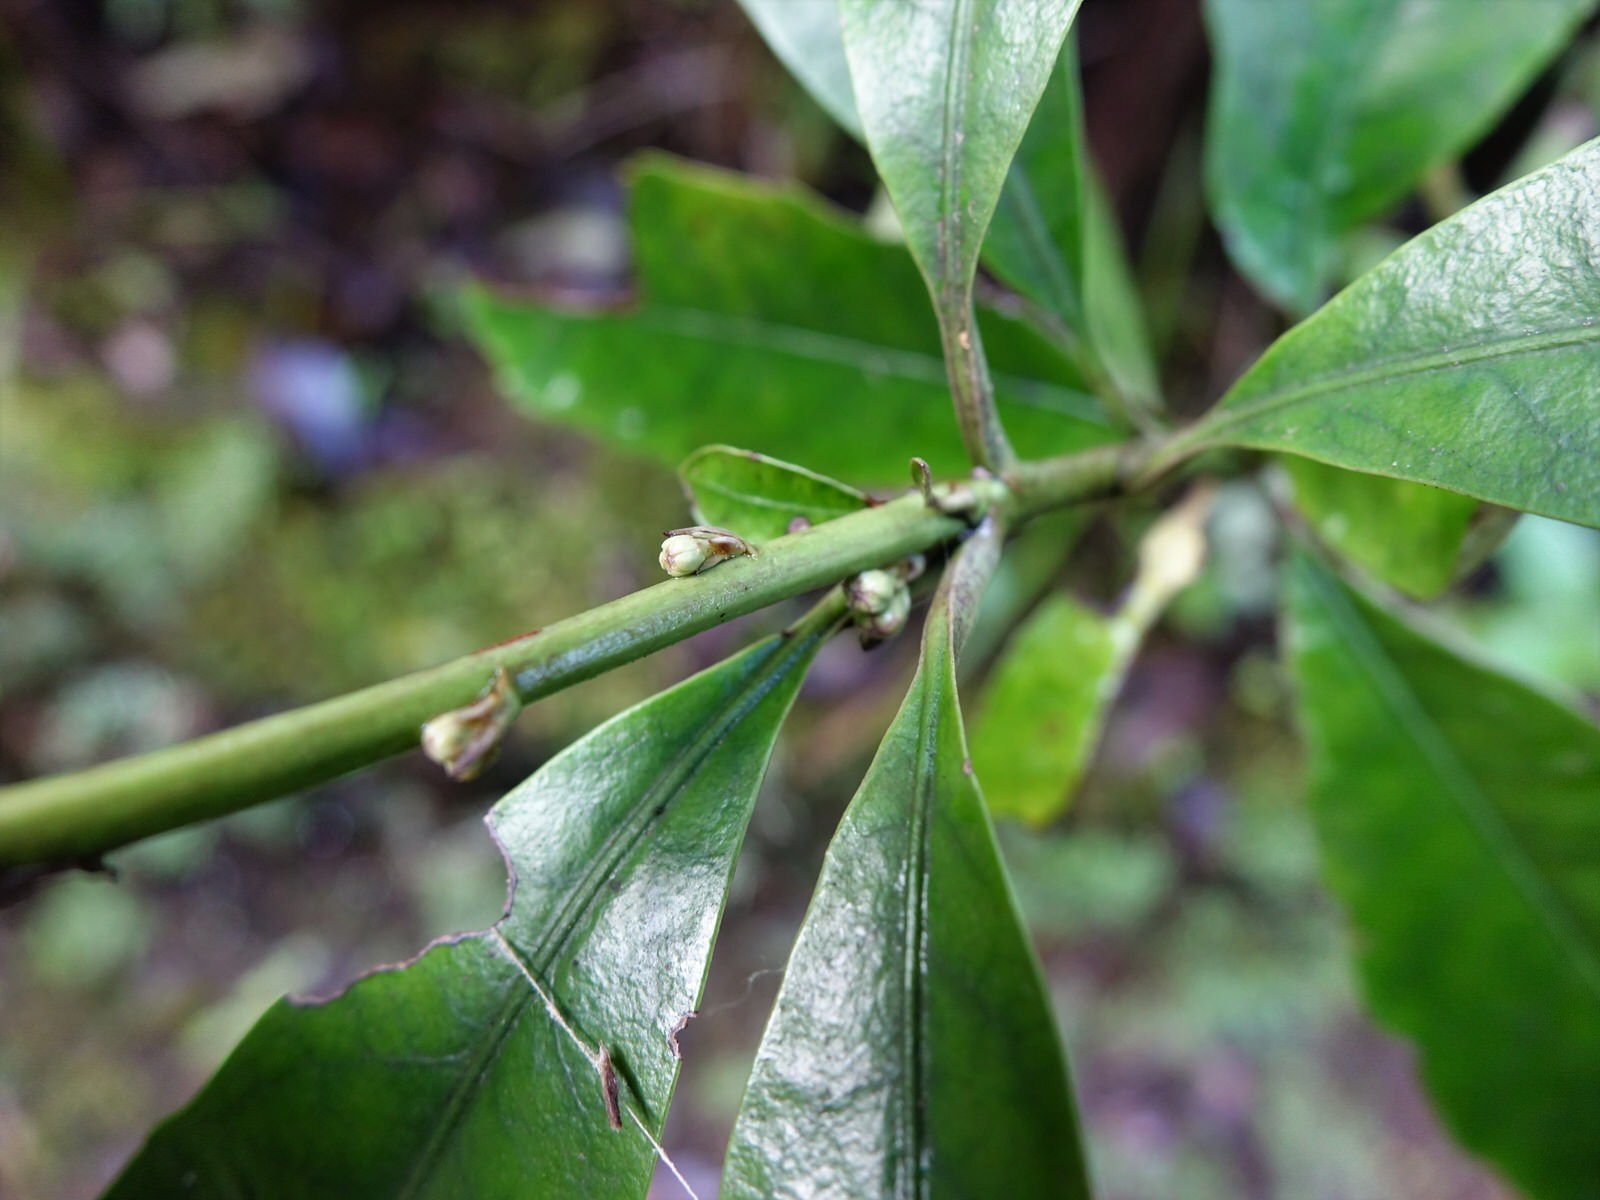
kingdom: Plantae
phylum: Tracheophyta
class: Magnoliopsida
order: Asterales
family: Alseuosmiaceae
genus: Alseuosmia
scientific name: Alseuosmia macrophylla
